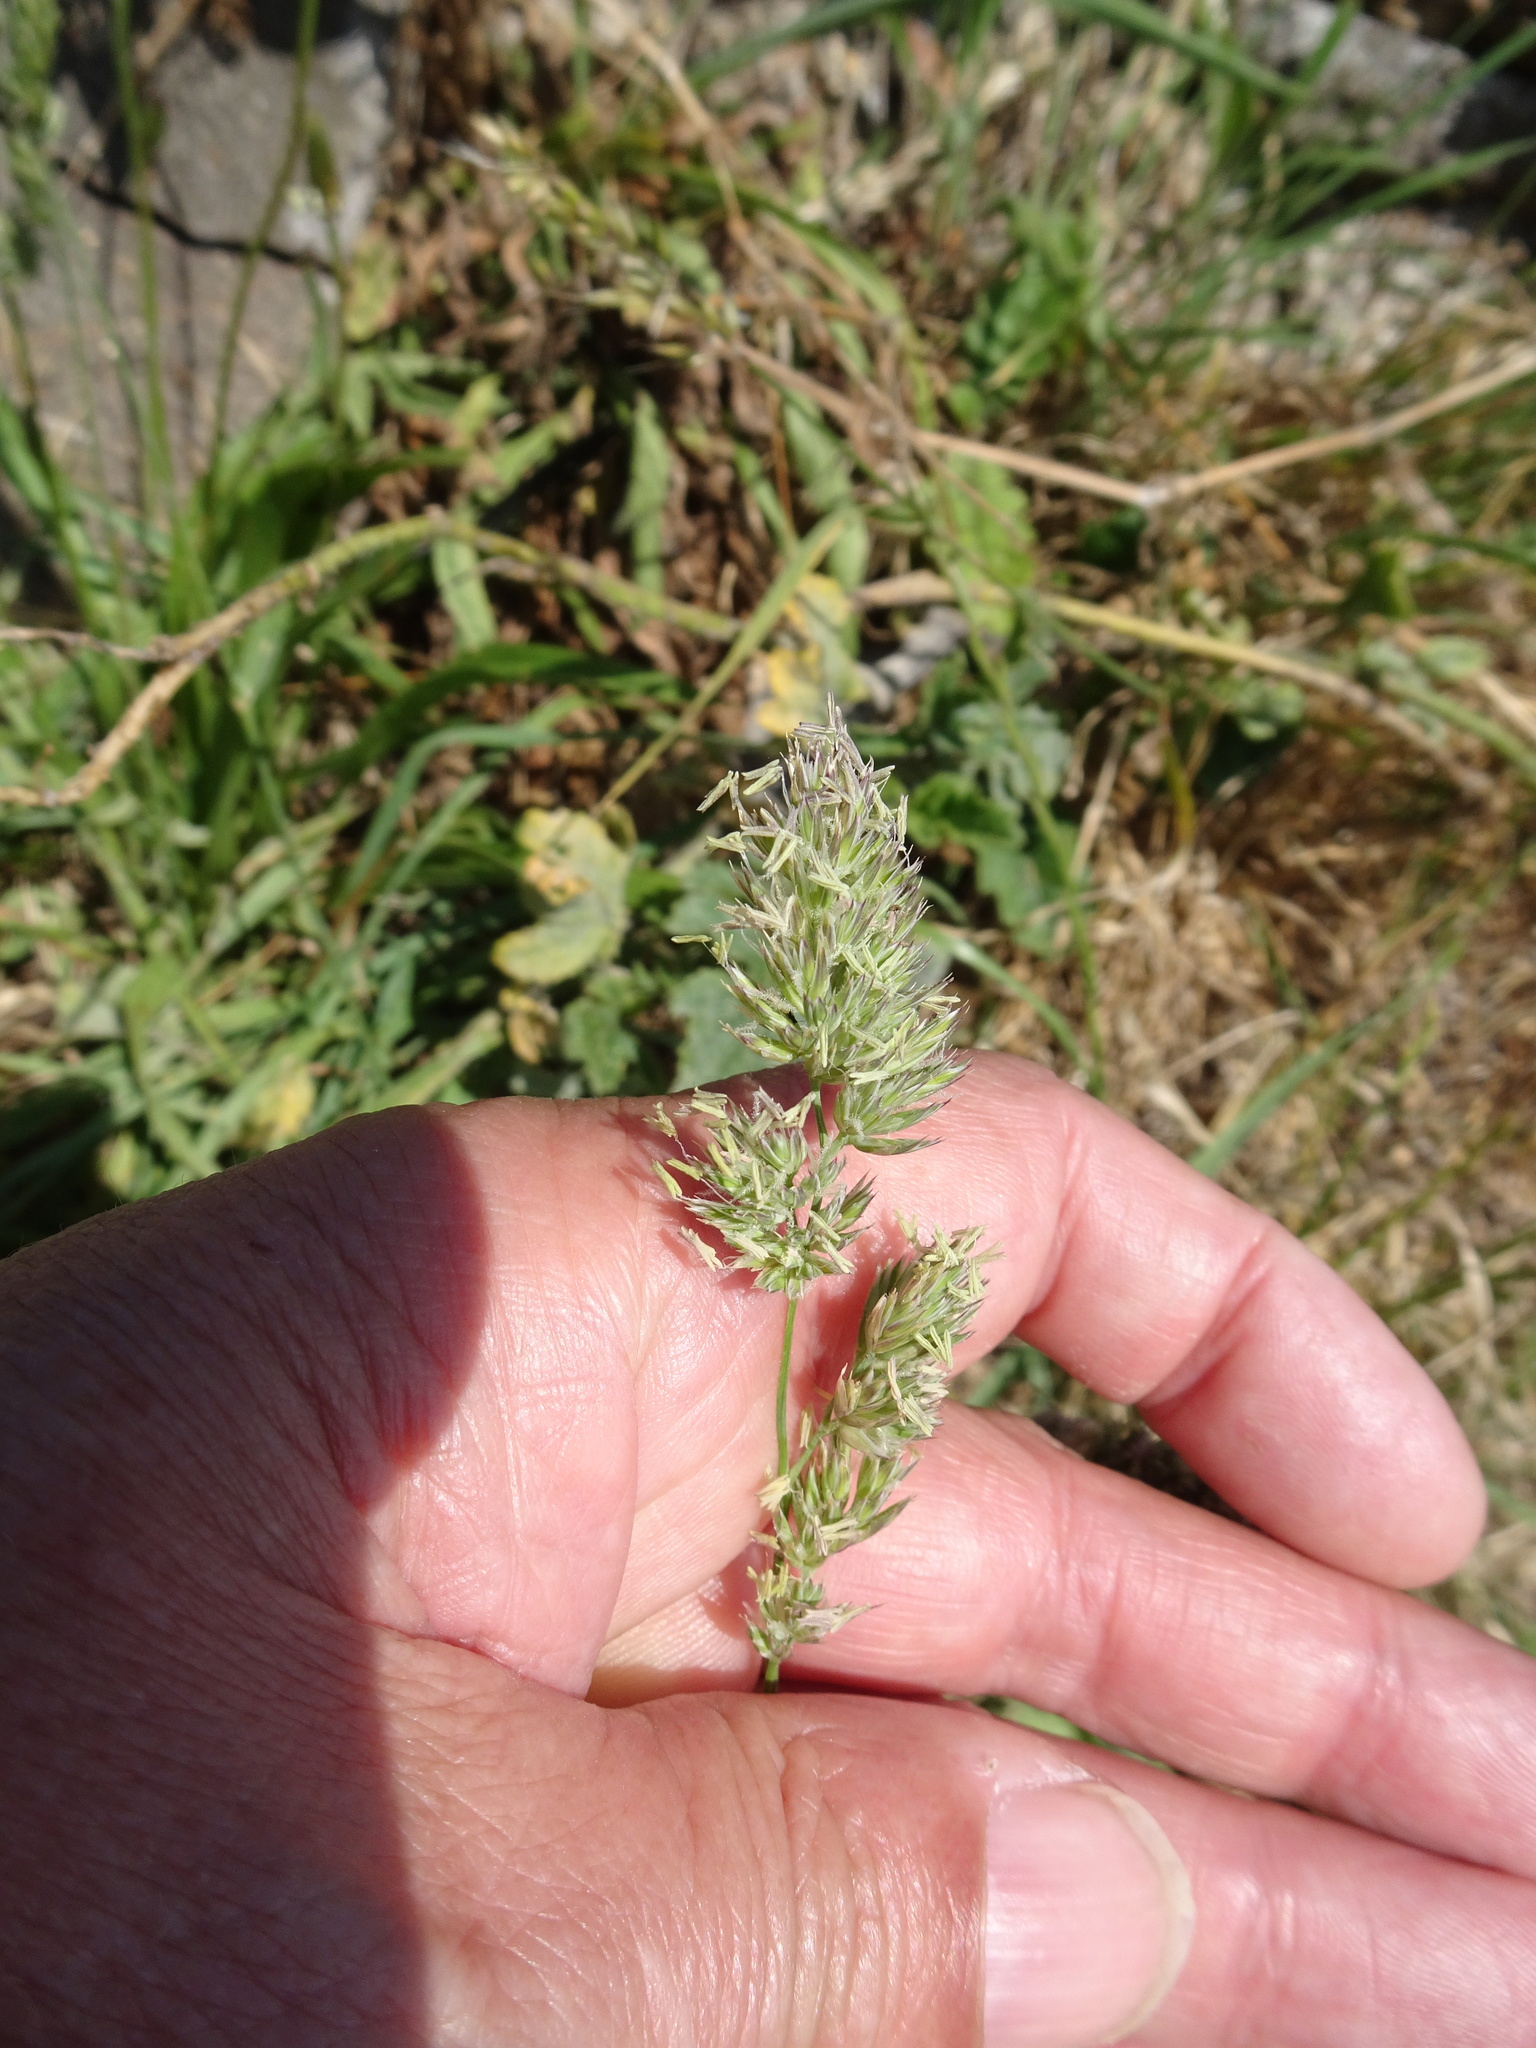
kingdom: Plantae
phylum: Tracheophyta
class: Liliopsida
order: Poales
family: Poaceae
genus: Dactylis
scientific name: Dactylis glomerata
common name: Orchardgrass
